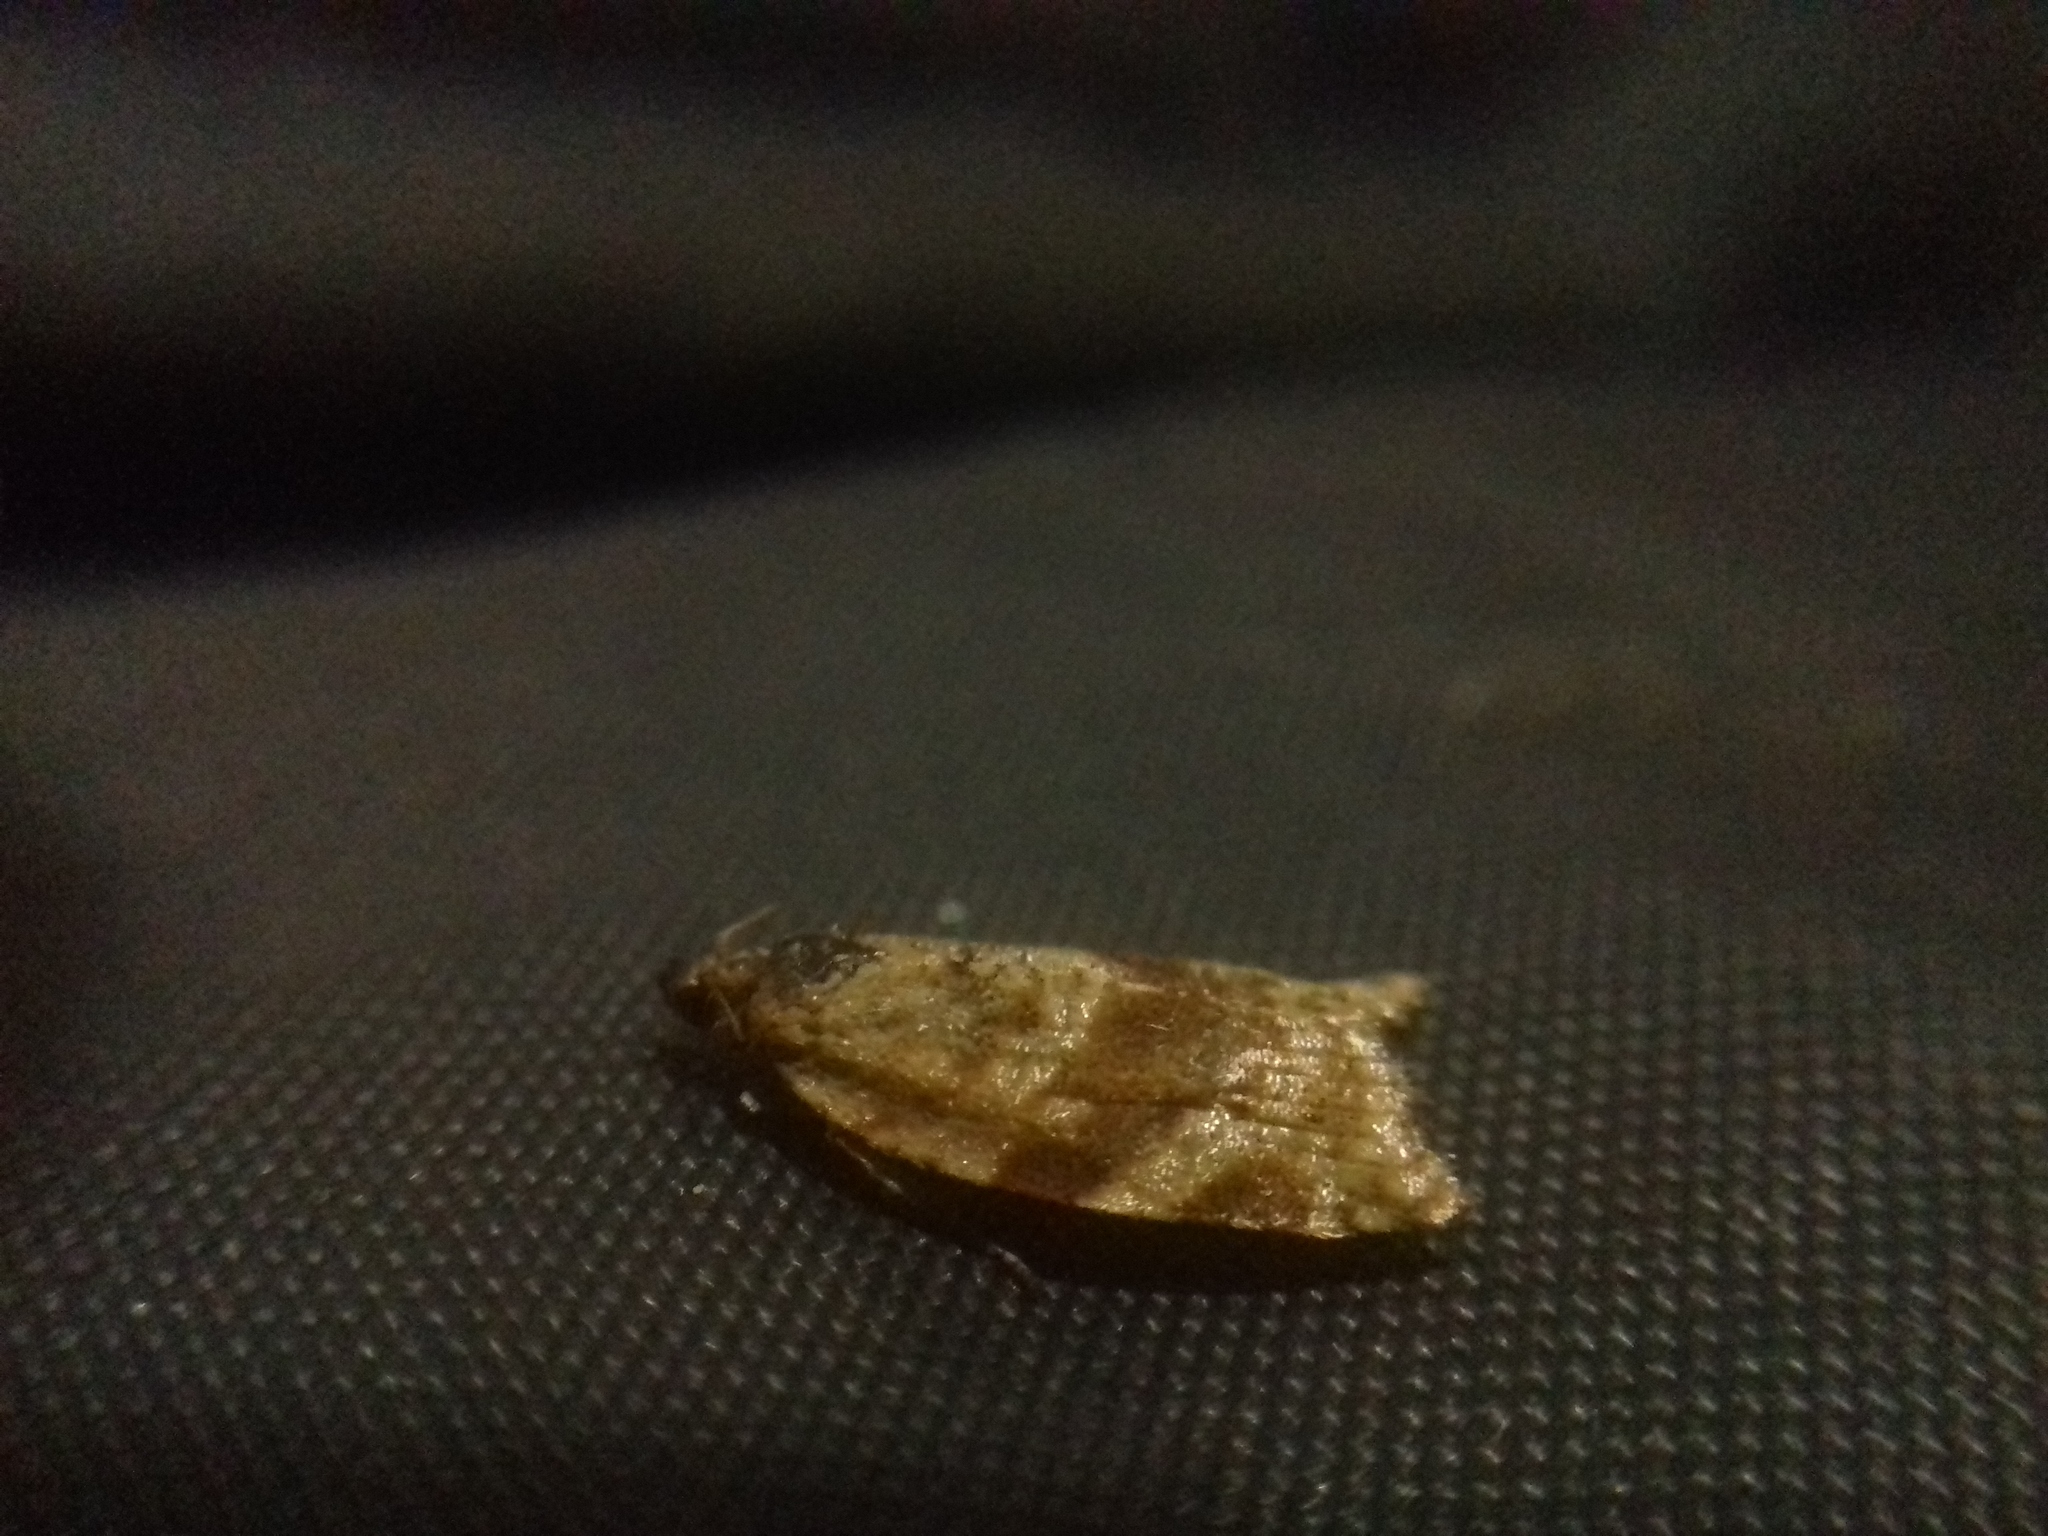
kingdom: Animalia
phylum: Arthropoda
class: Insecta
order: Lepidoptera
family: Tortricidae
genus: Argyrotaenia
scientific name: Argyrotaenia ljungiana
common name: Heather twist
